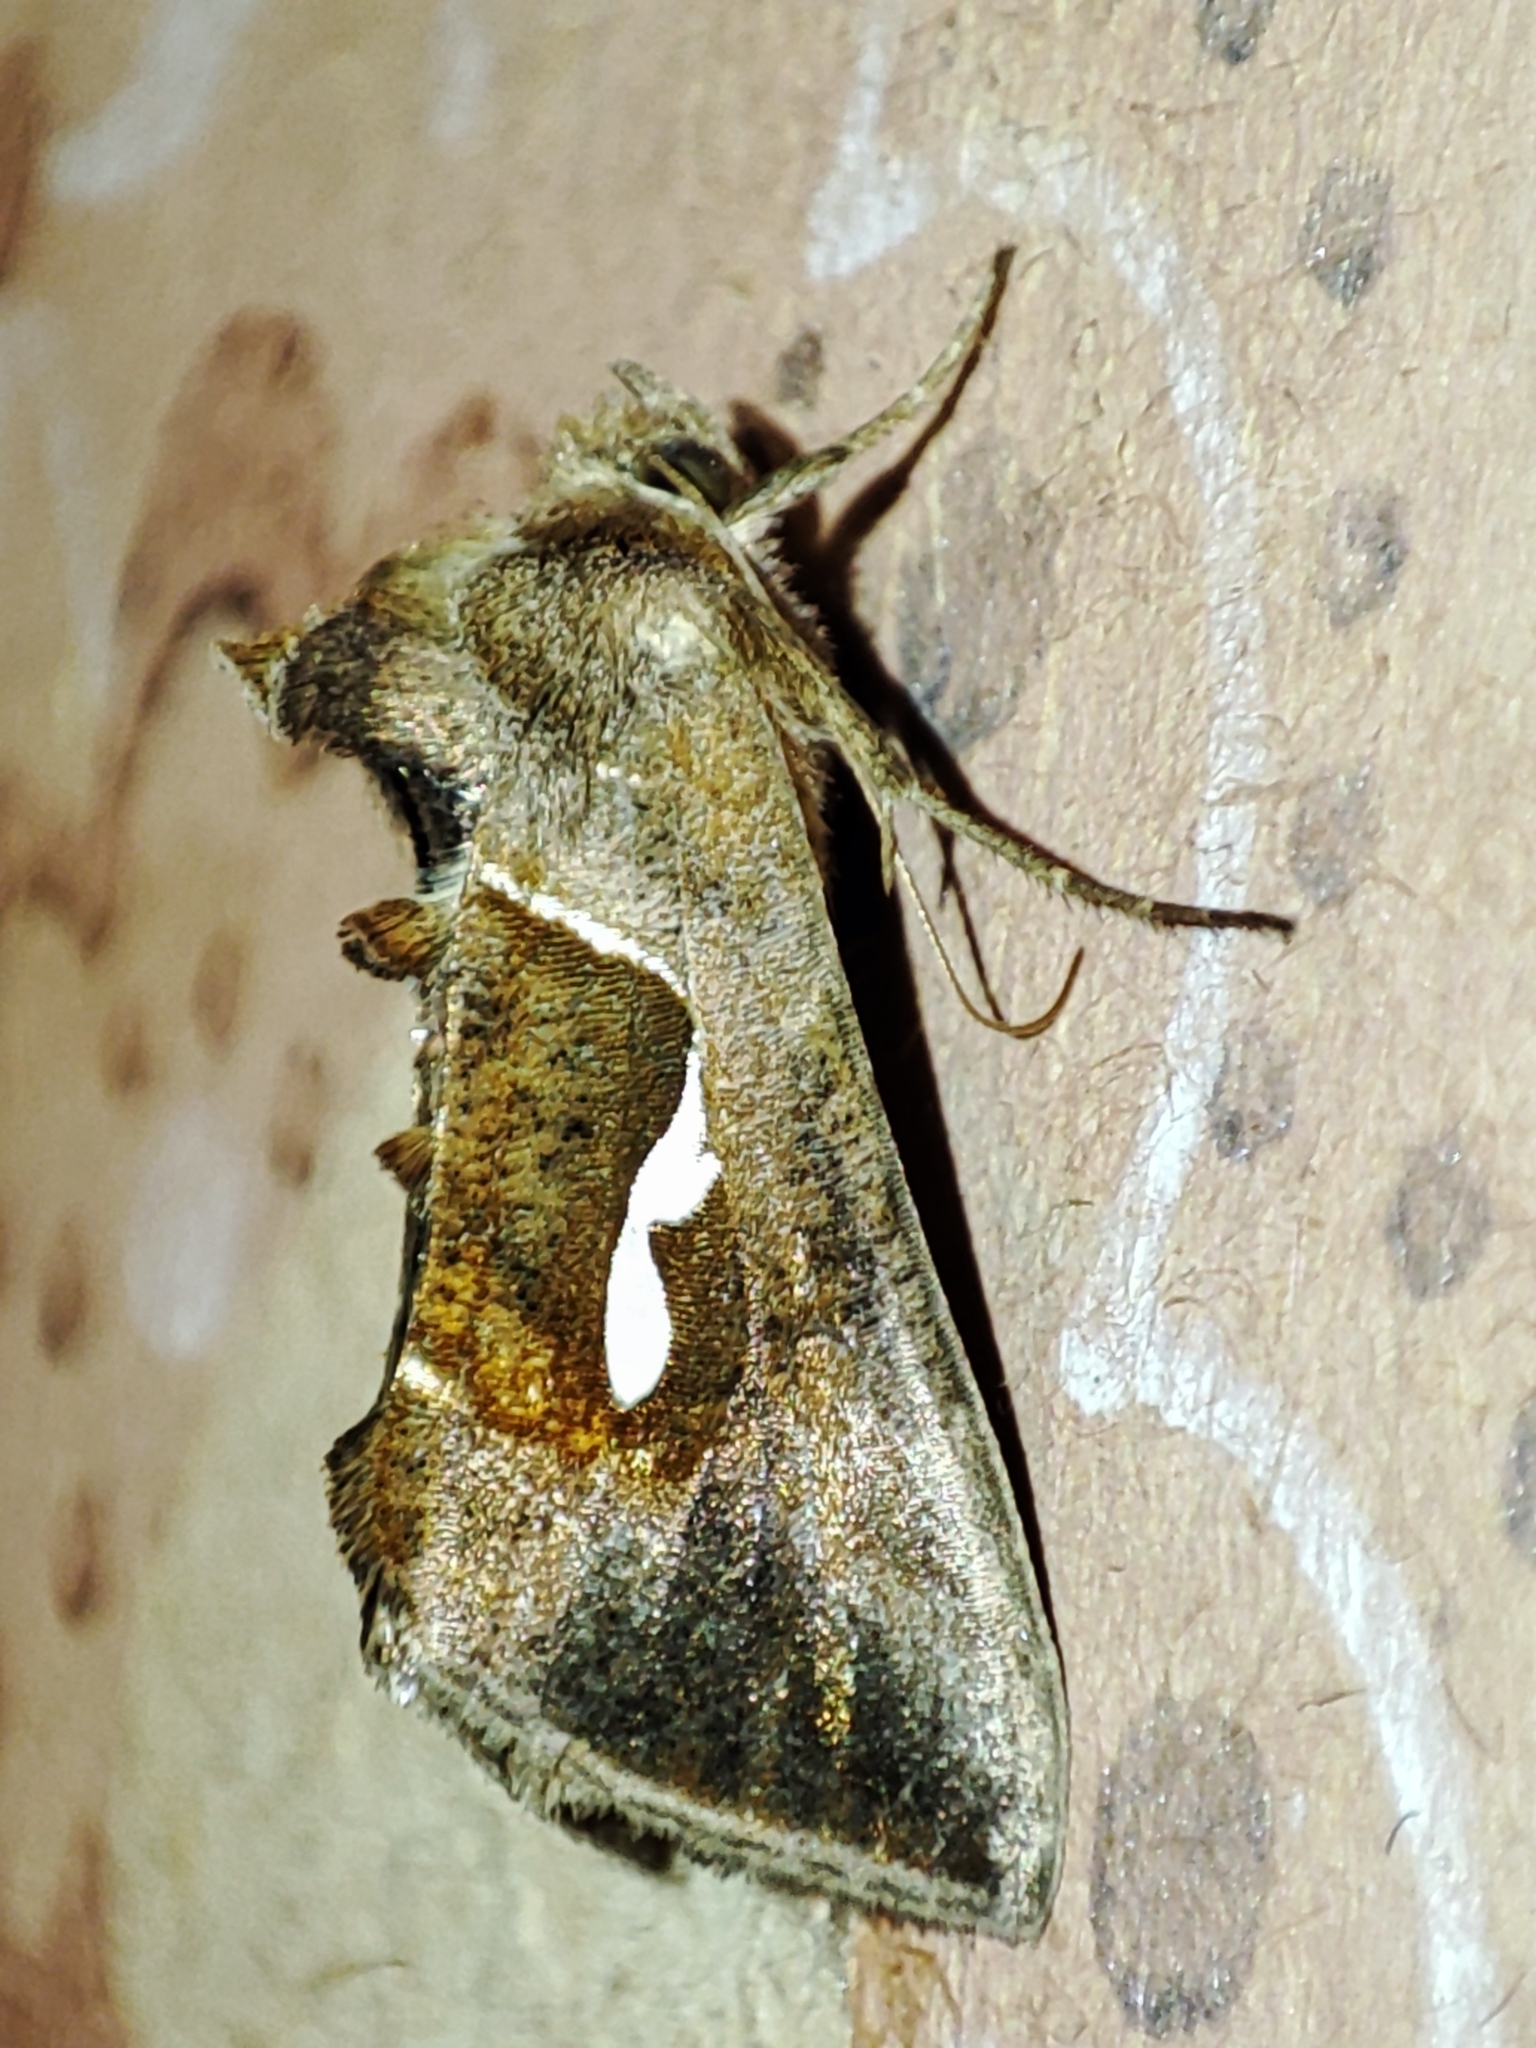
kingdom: Animalia
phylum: Arthropoda
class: Insecta
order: Lepidoptera
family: Noctuidae
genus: Macdunnoughia
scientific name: Macdunnoughia confusa
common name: Dewick's plusia
